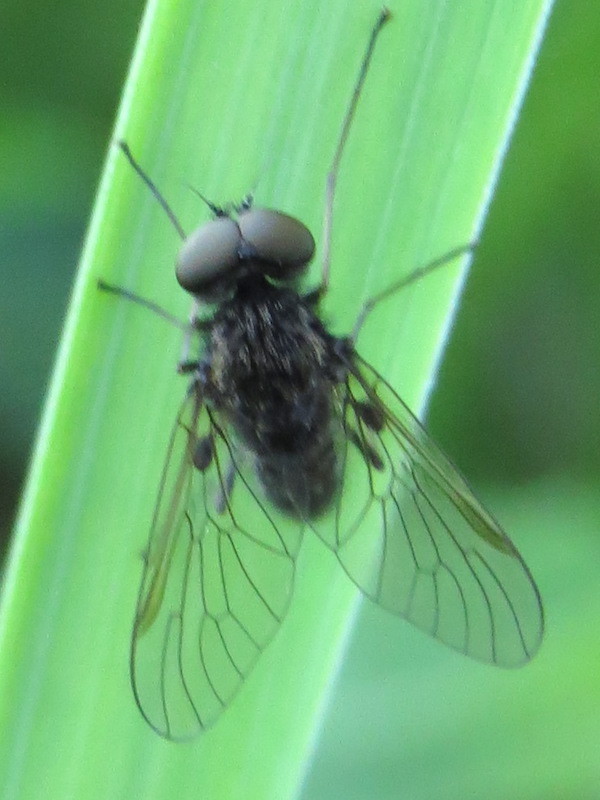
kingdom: Animalia
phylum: Arthropoda
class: Insecta
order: Diptera
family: Rhagionidae
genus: Chrysopilus
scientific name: Chrysopilus proximus
